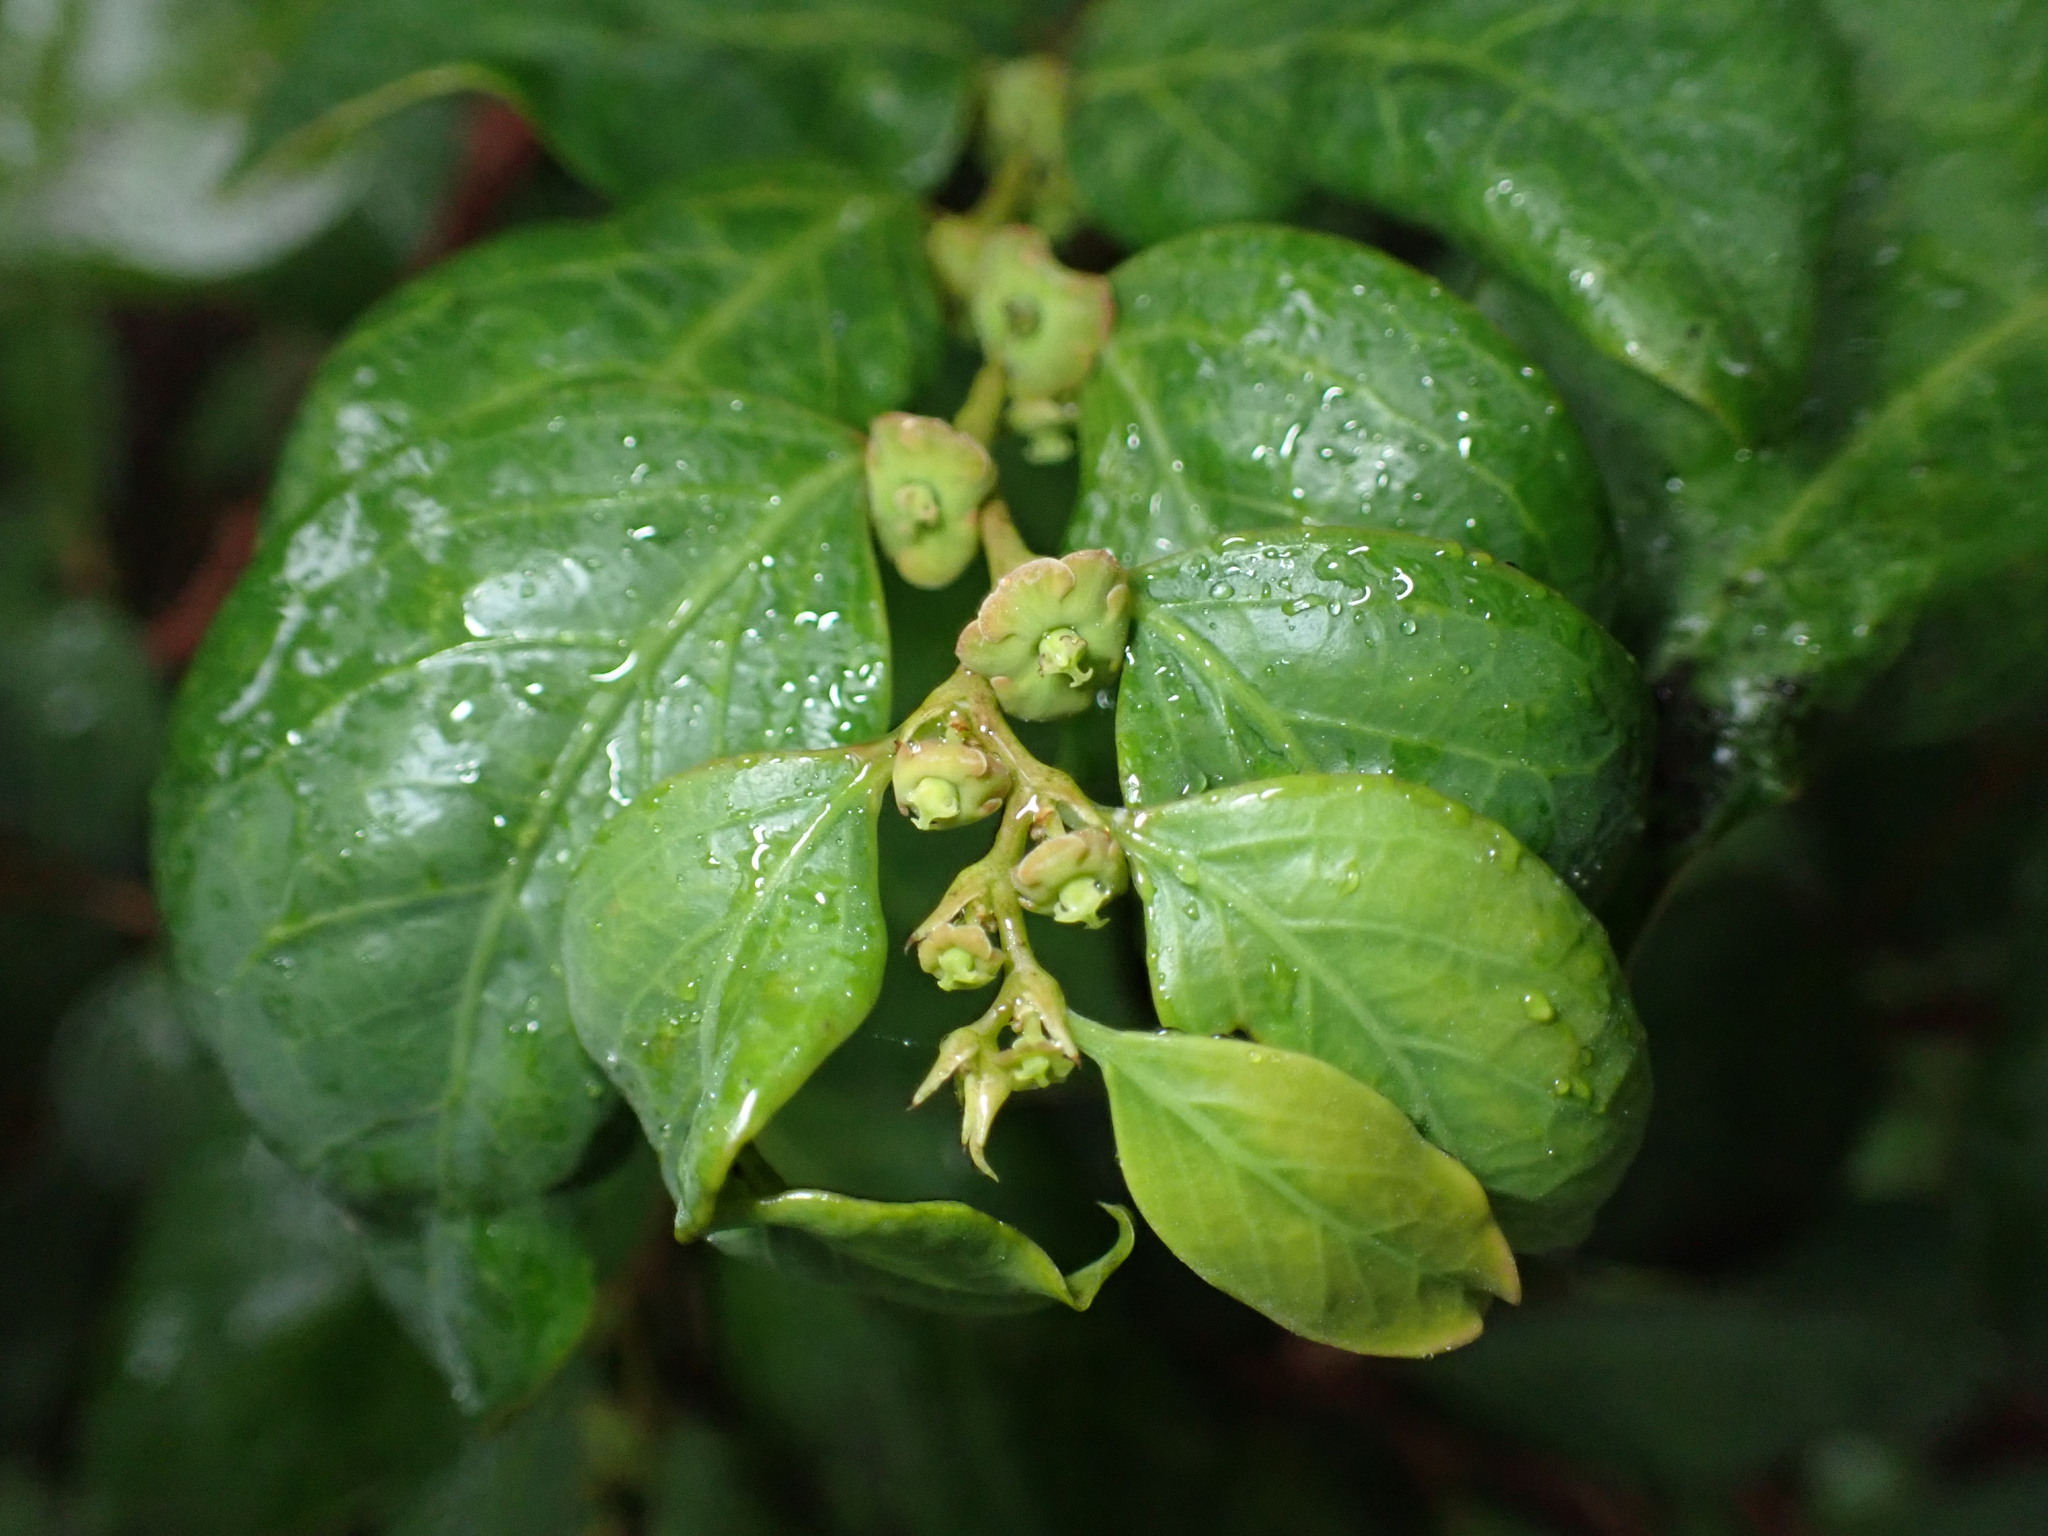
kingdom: Plantae
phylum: Tracheophyta
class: Magnoliopsida
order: Malpighiales
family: Phyllanthaceae
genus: Breynia
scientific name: Breynia fruticosa
